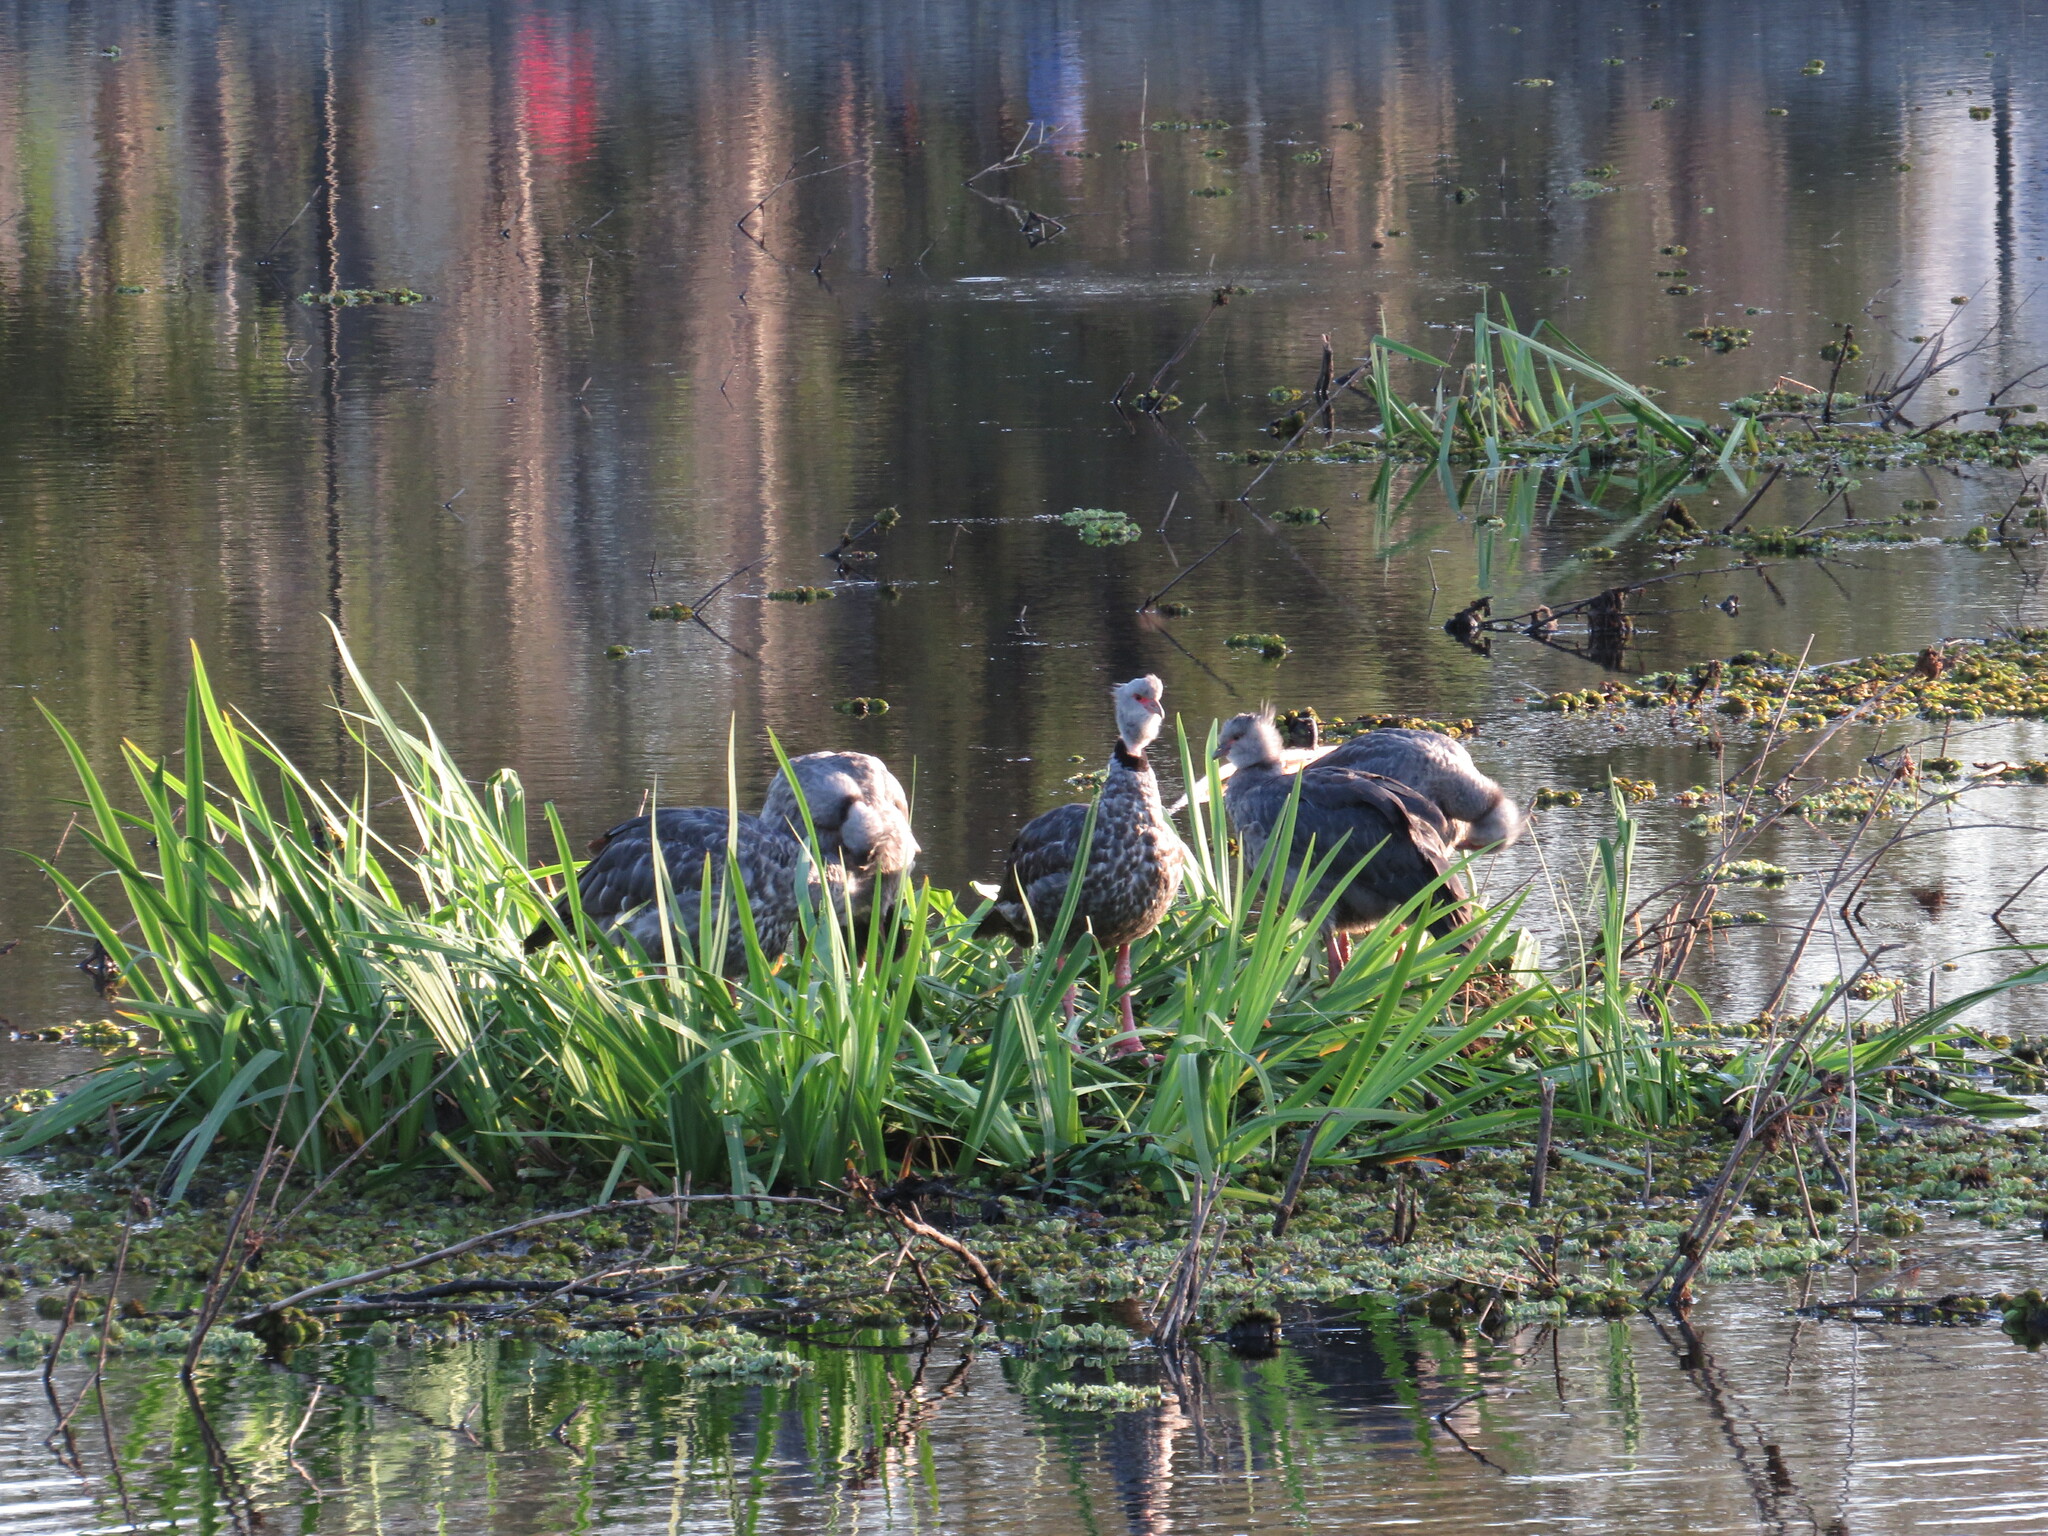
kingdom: Animalia
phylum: Chordata
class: Aves
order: Anseriformes
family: Anhimidae
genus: Chauna
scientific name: Chauna torquata
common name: Southern screamer
